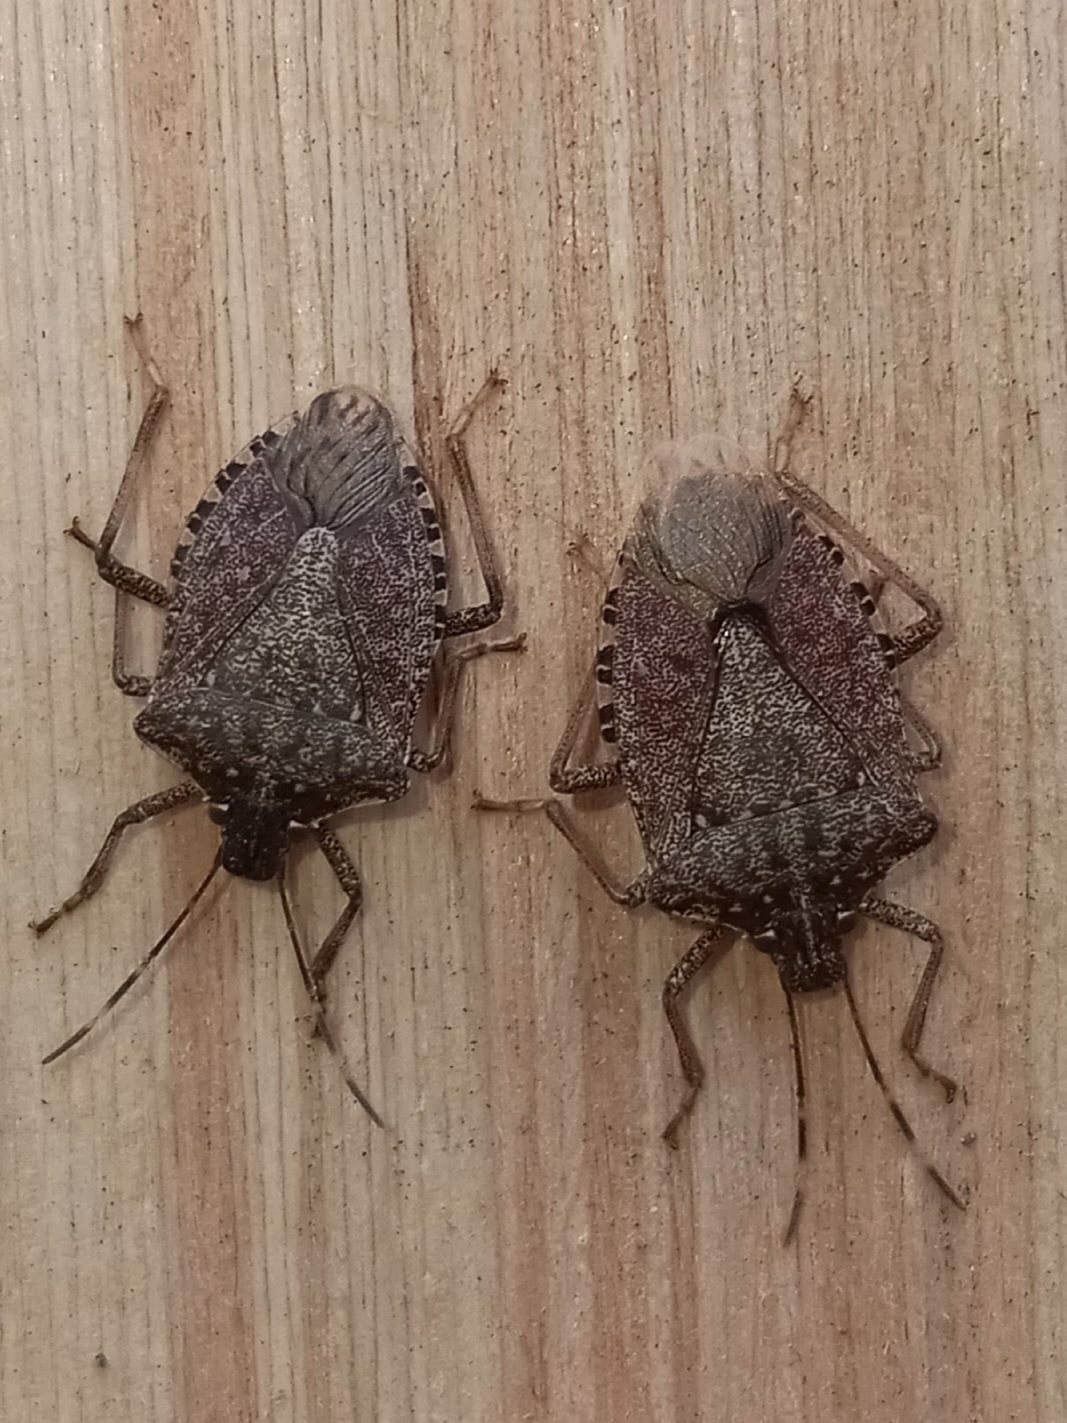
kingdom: Animalia
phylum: Arthropoda
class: Insecta
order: Hemiptera
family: Pentatomidae
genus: Halyomorpha
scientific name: Halyomorpha halys
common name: Brown marmorated stink bug
